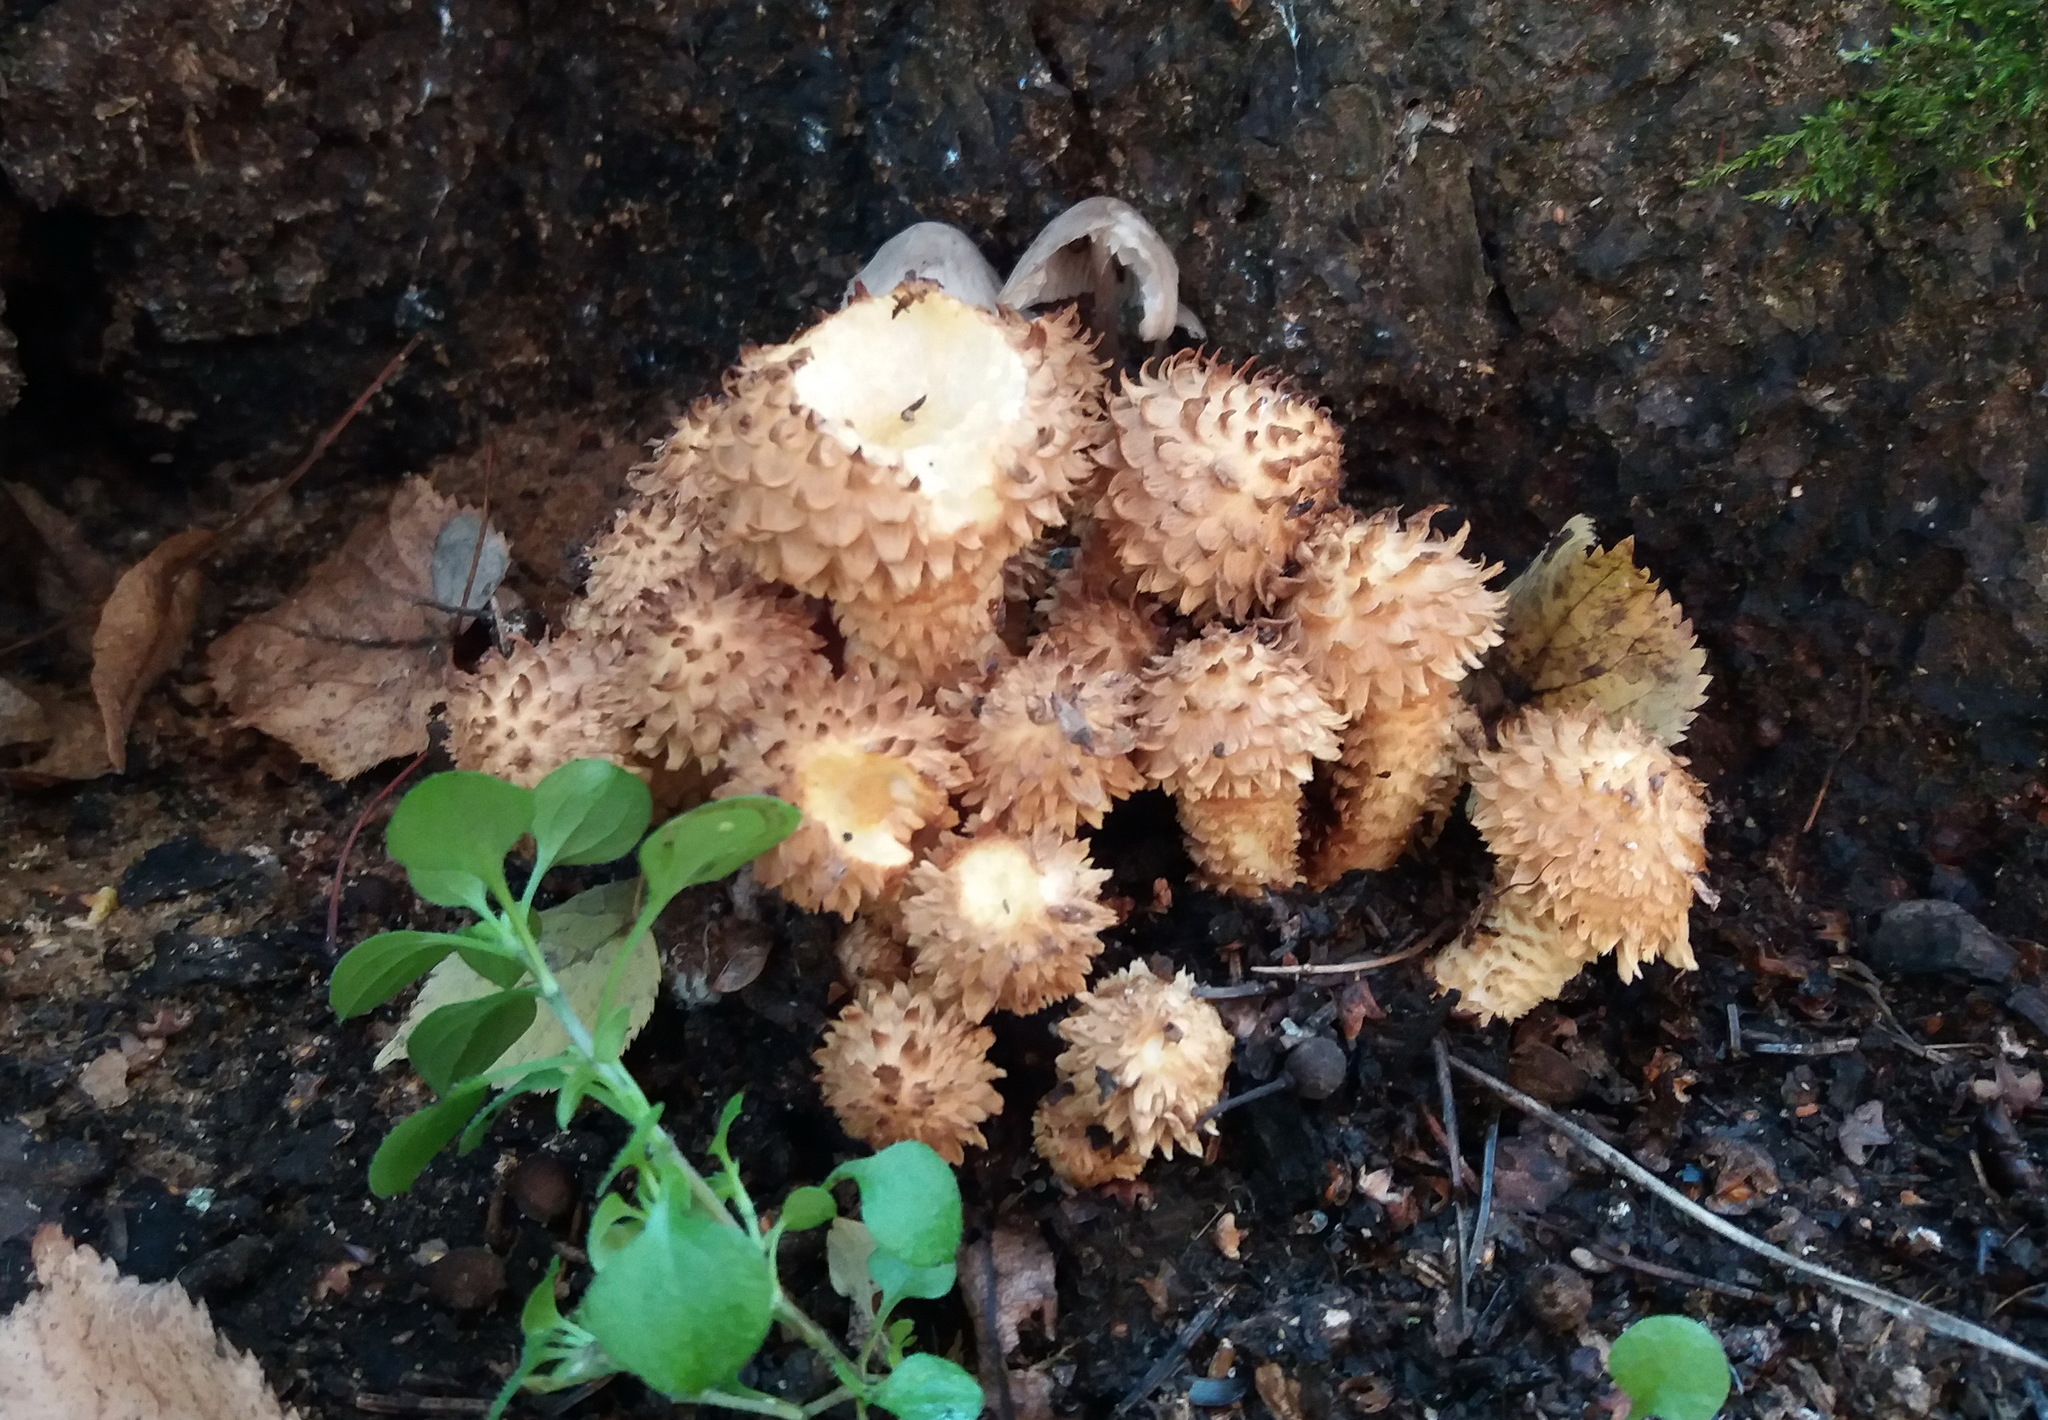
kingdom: Fungi
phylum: Basidiomycota
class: Agaricomycetes
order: Agaricales
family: Strophariaceae
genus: Pholiota
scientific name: Pholiota squarrosa
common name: Shaggy pholiota
